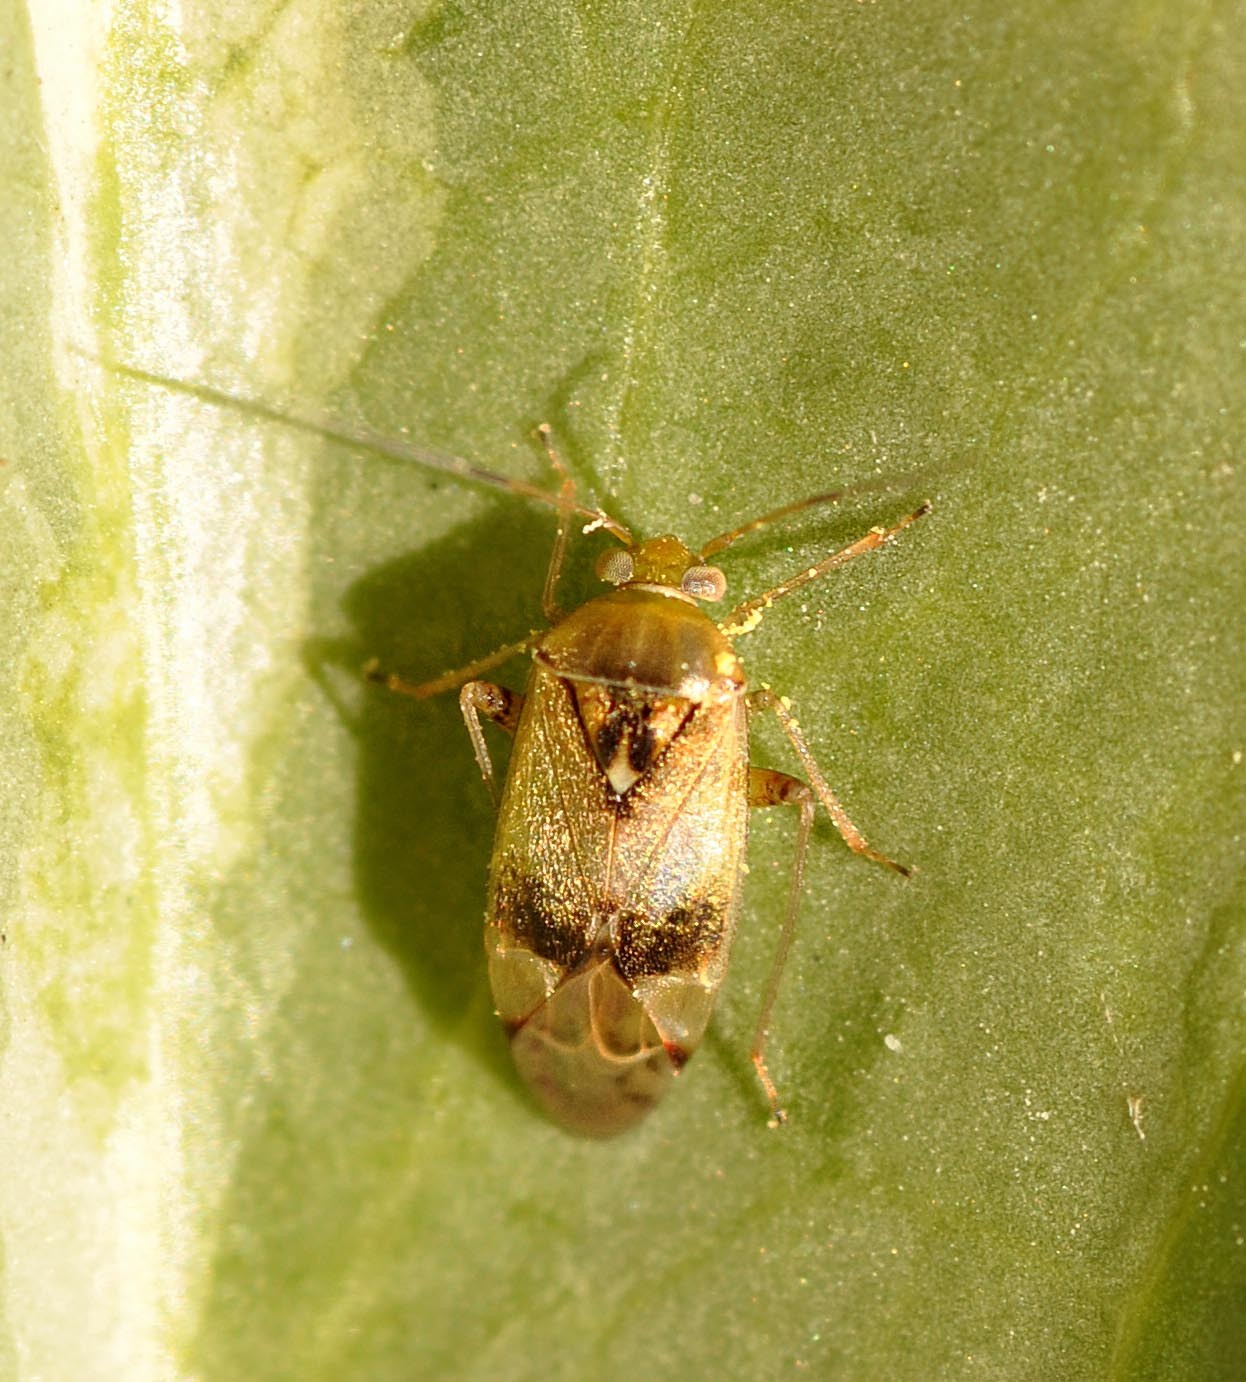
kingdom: Animalia
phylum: Arthropoda
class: Insecta
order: Hemiptera
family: Miridae
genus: Pinalitus
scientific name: Pinalitus cervinus
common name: Plant bug
